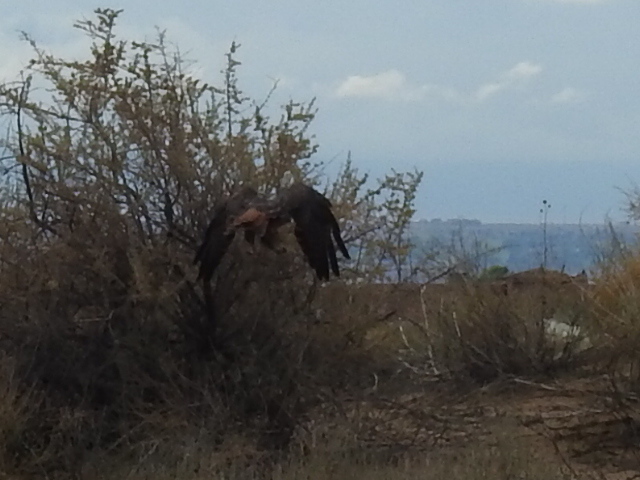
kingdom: Animalia
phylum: Chordata
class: Aves
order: Accipitriformes
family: Accipitridae
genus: Buteo
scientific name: Buteo jamaicensis
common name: Red-tailed hawk
